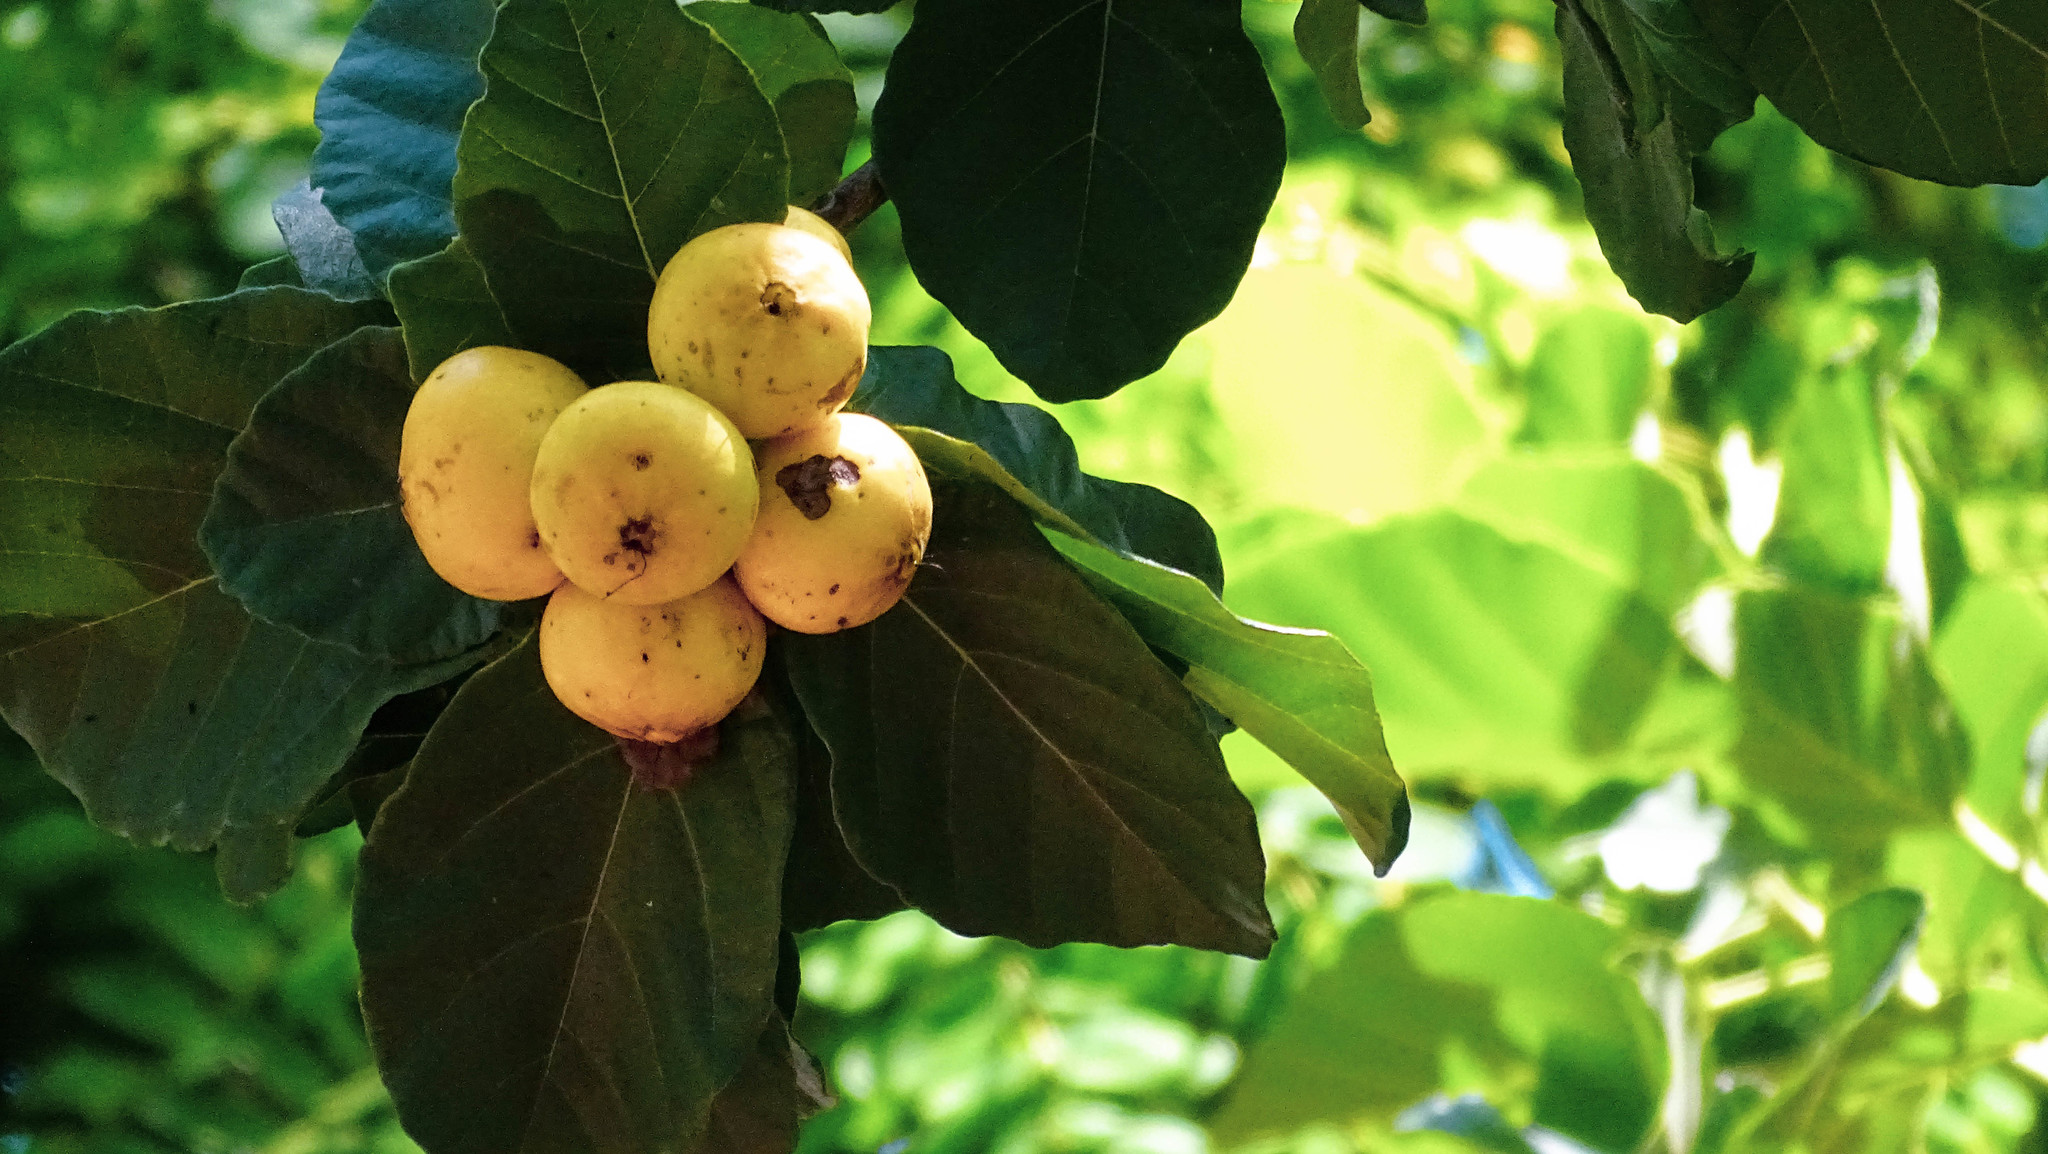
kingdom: Plantae
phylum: Tracheophyta
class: Magnoliopsida
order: Boraginales
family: Cordiaceae
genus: Cordia
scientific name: Cordia dodecandra
